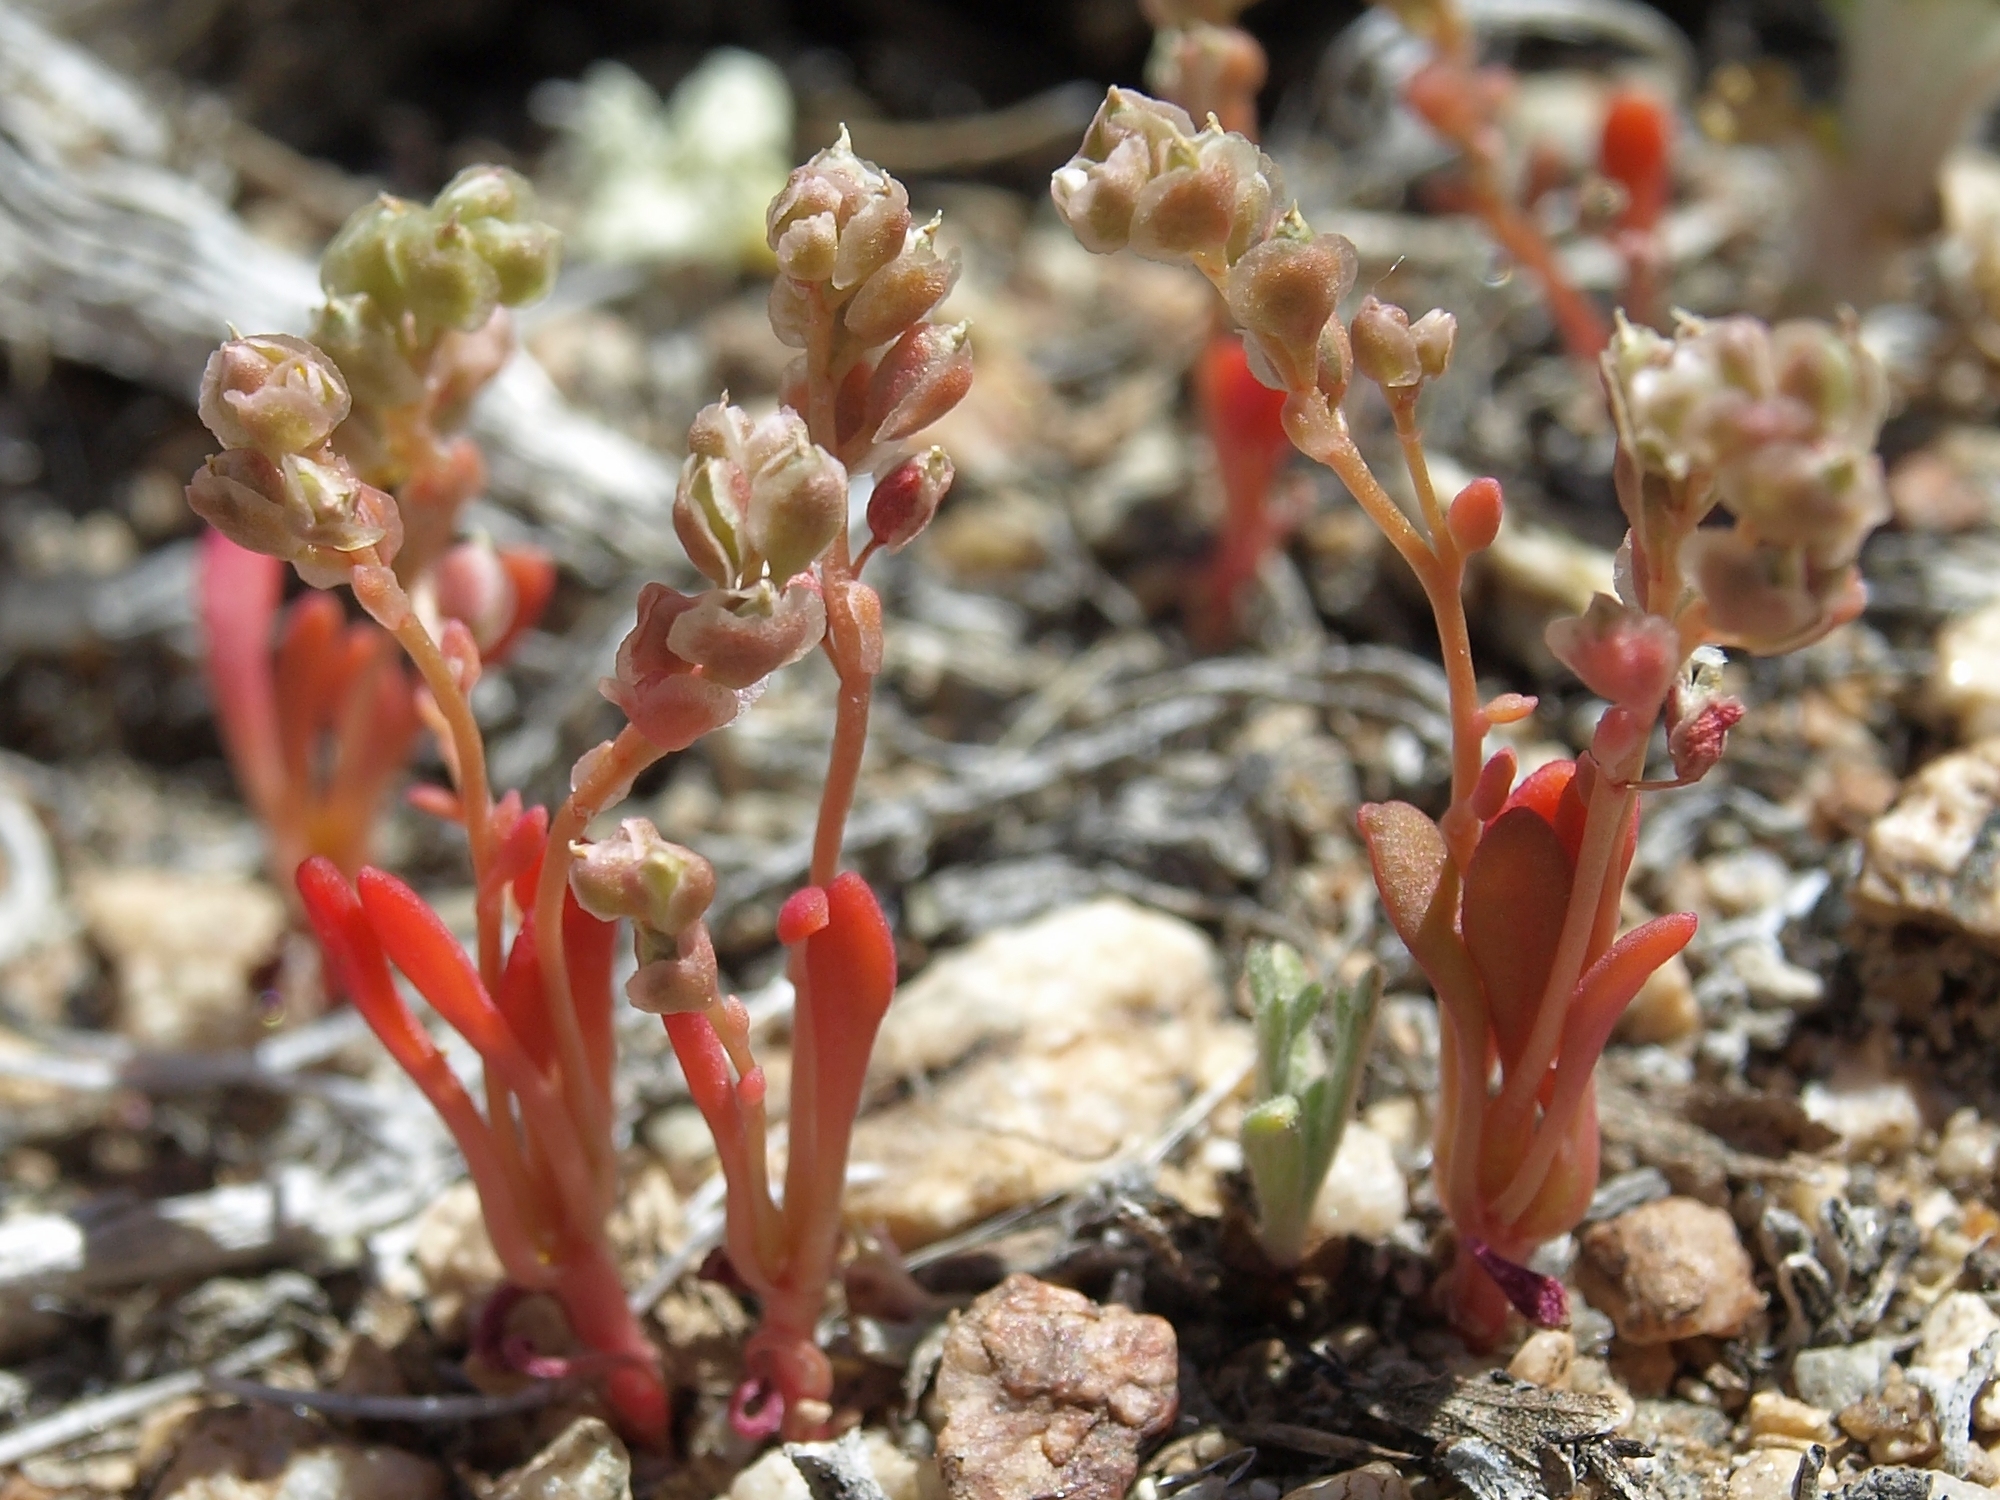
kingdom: Plantae
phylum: Tracheophyta
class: Magnoliopsida
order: Caryophyllales
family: Montiaceae
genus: Calyptridium
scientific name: Calyptridium roseum
